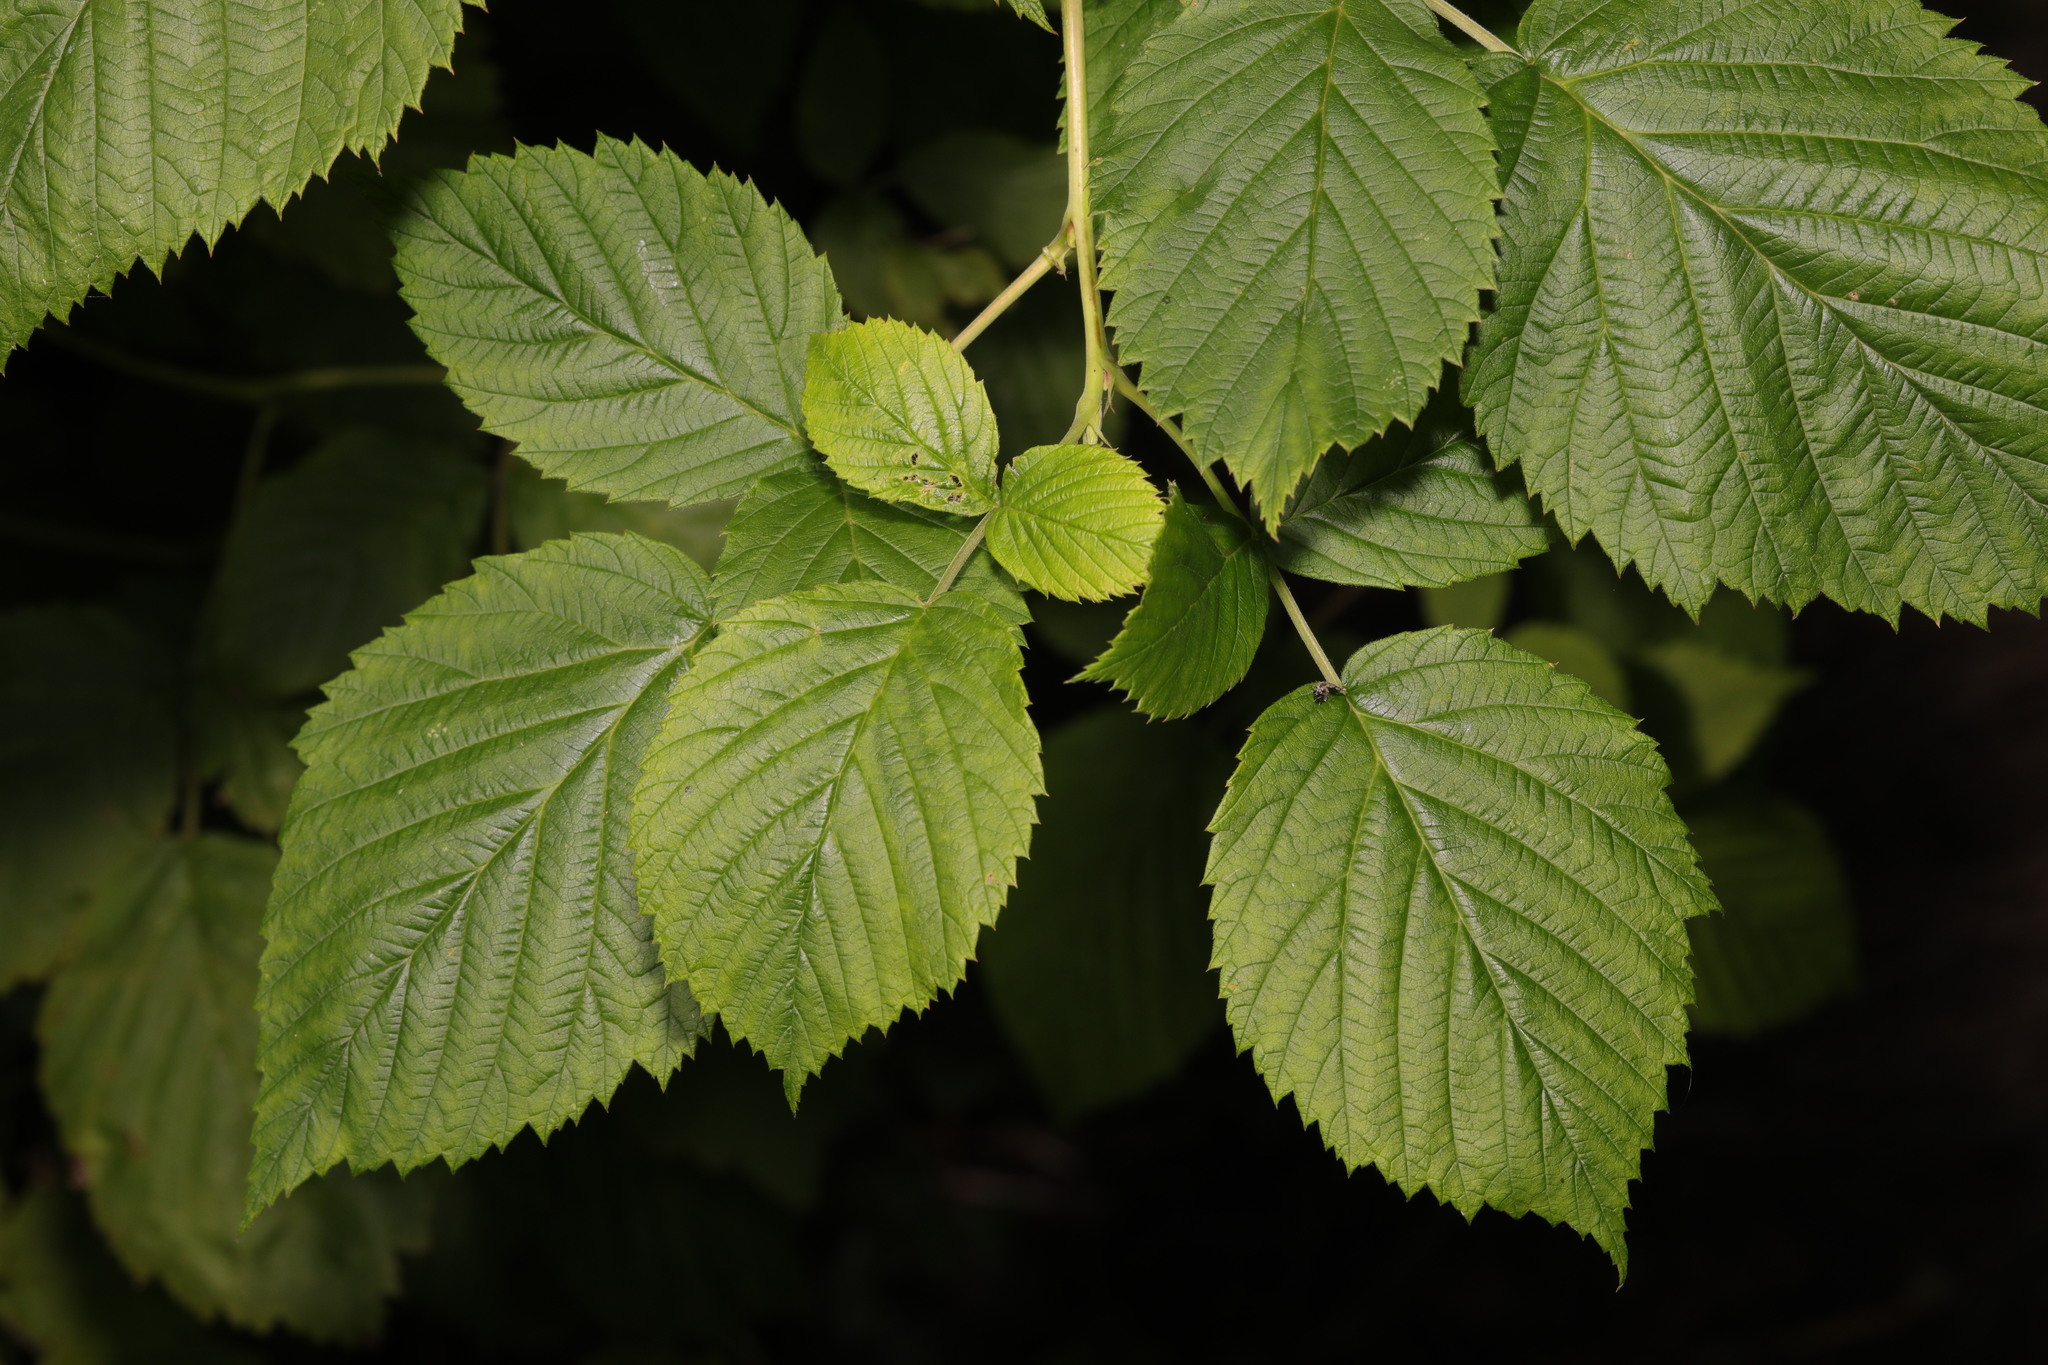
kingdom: Plantae
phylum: Tracheophyta
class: Magnoliopsida
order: Rosales
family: Rosaceae
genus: Rubus
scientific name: Rubus idaeus
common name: Raspberry
